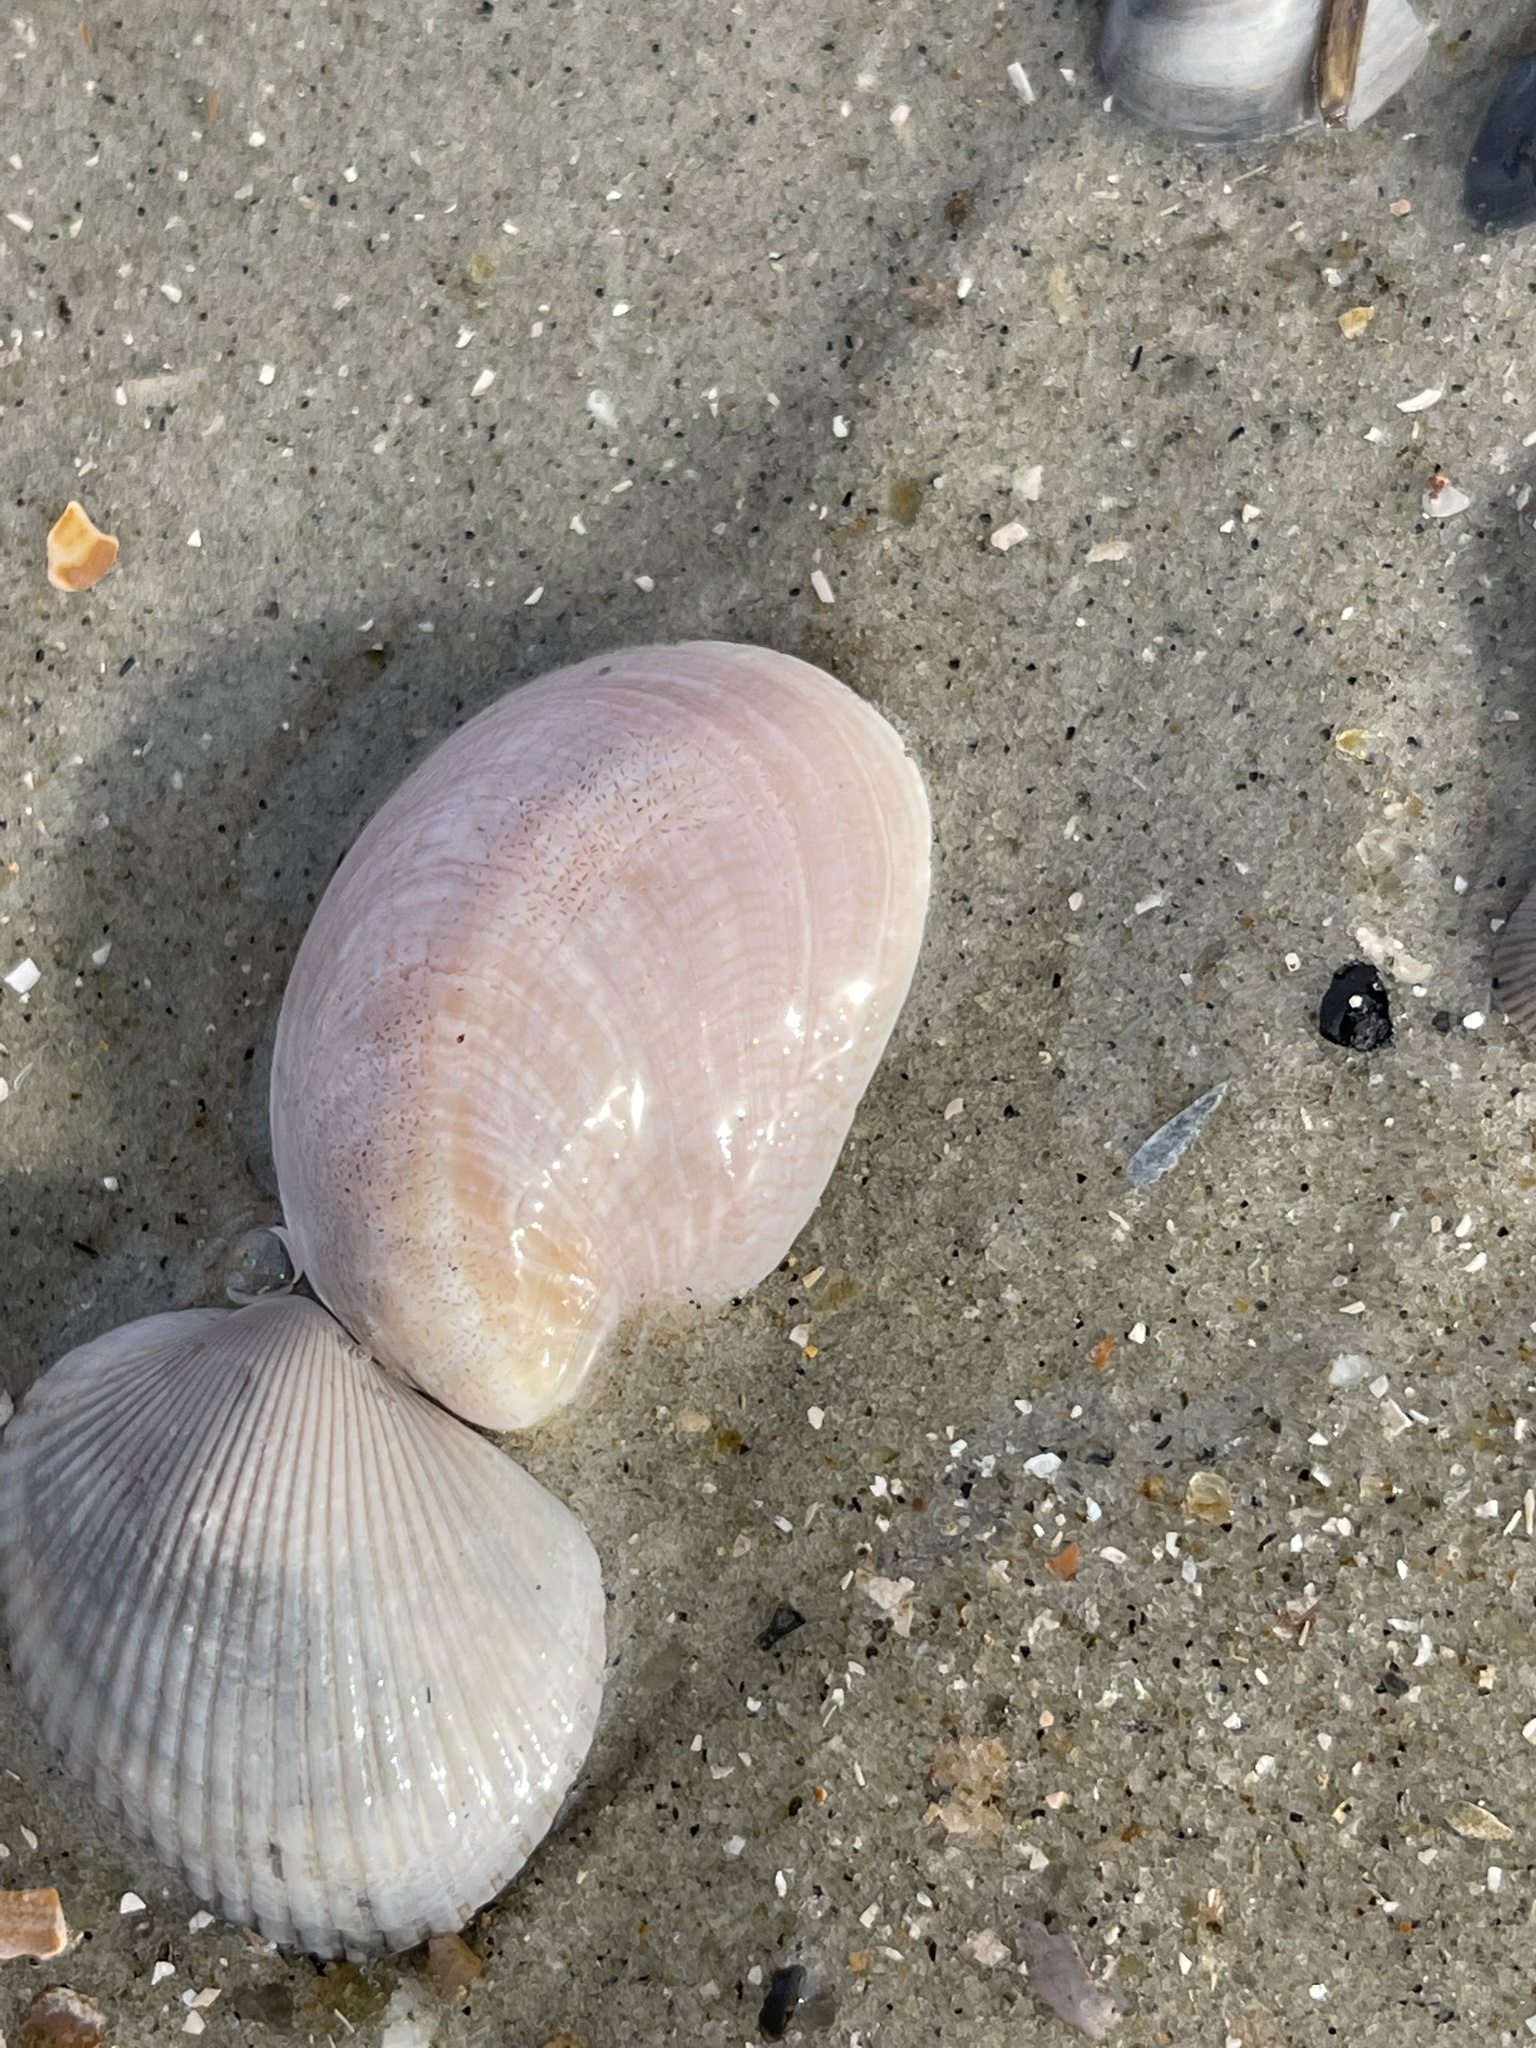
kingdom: Animalia
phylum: Mollusca
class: Gastropoda
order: Littorinimorpha
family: Calyptraeidae
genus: Crepidula
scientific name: Crepidula fornicata
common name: Slipper limpet
